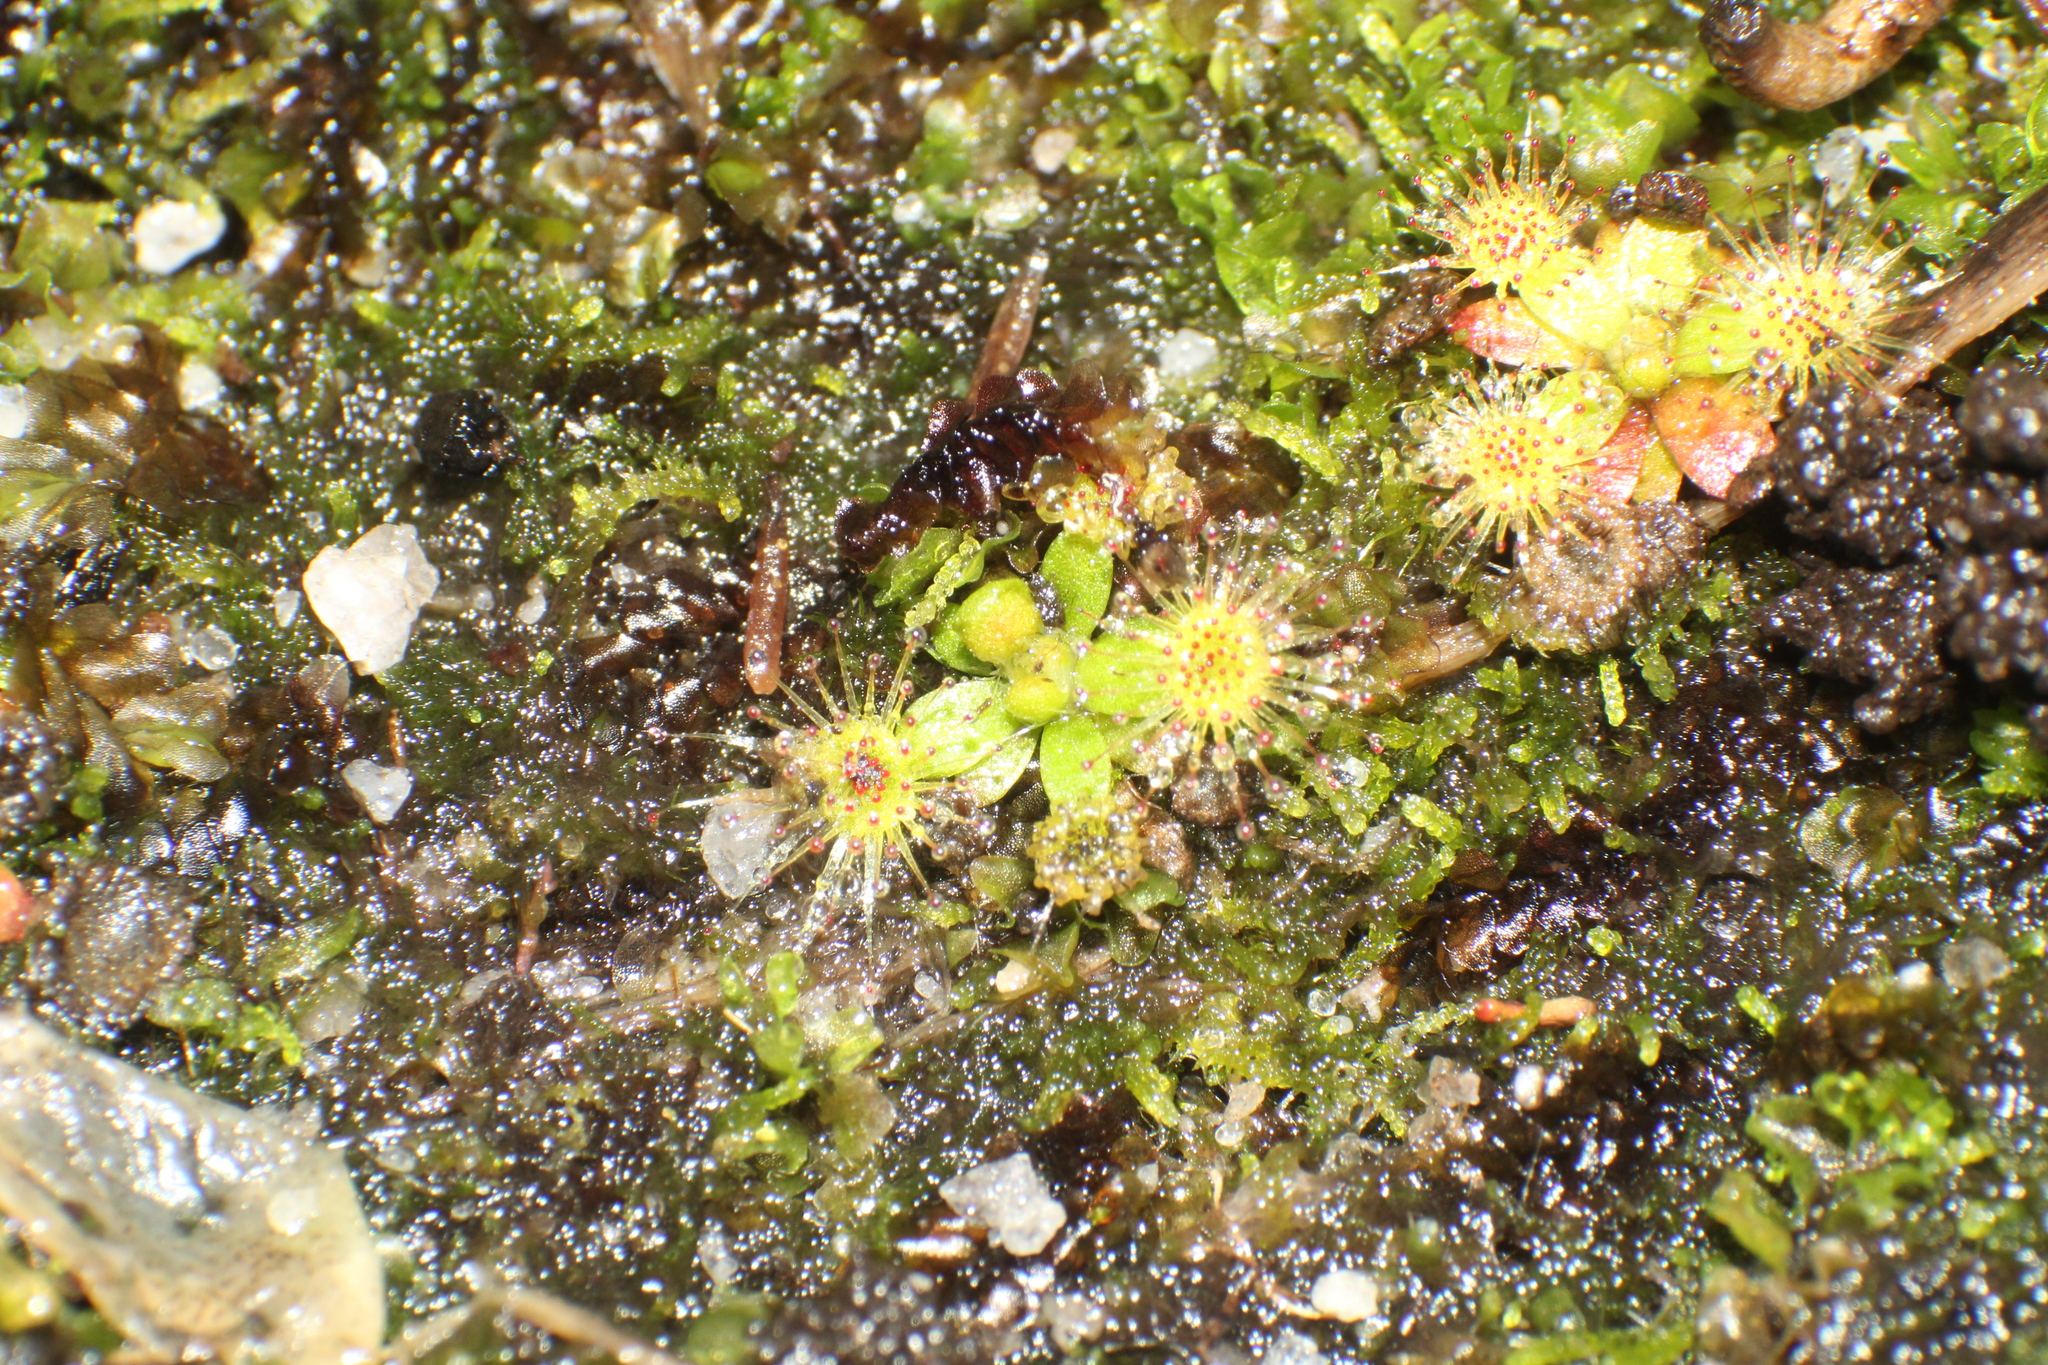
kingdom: Plantae
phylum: Tracheophyta
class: Magnoliopsida
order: Caryophyllales
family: Droseraceae
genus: Drosera
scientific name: Drosera pulchella
